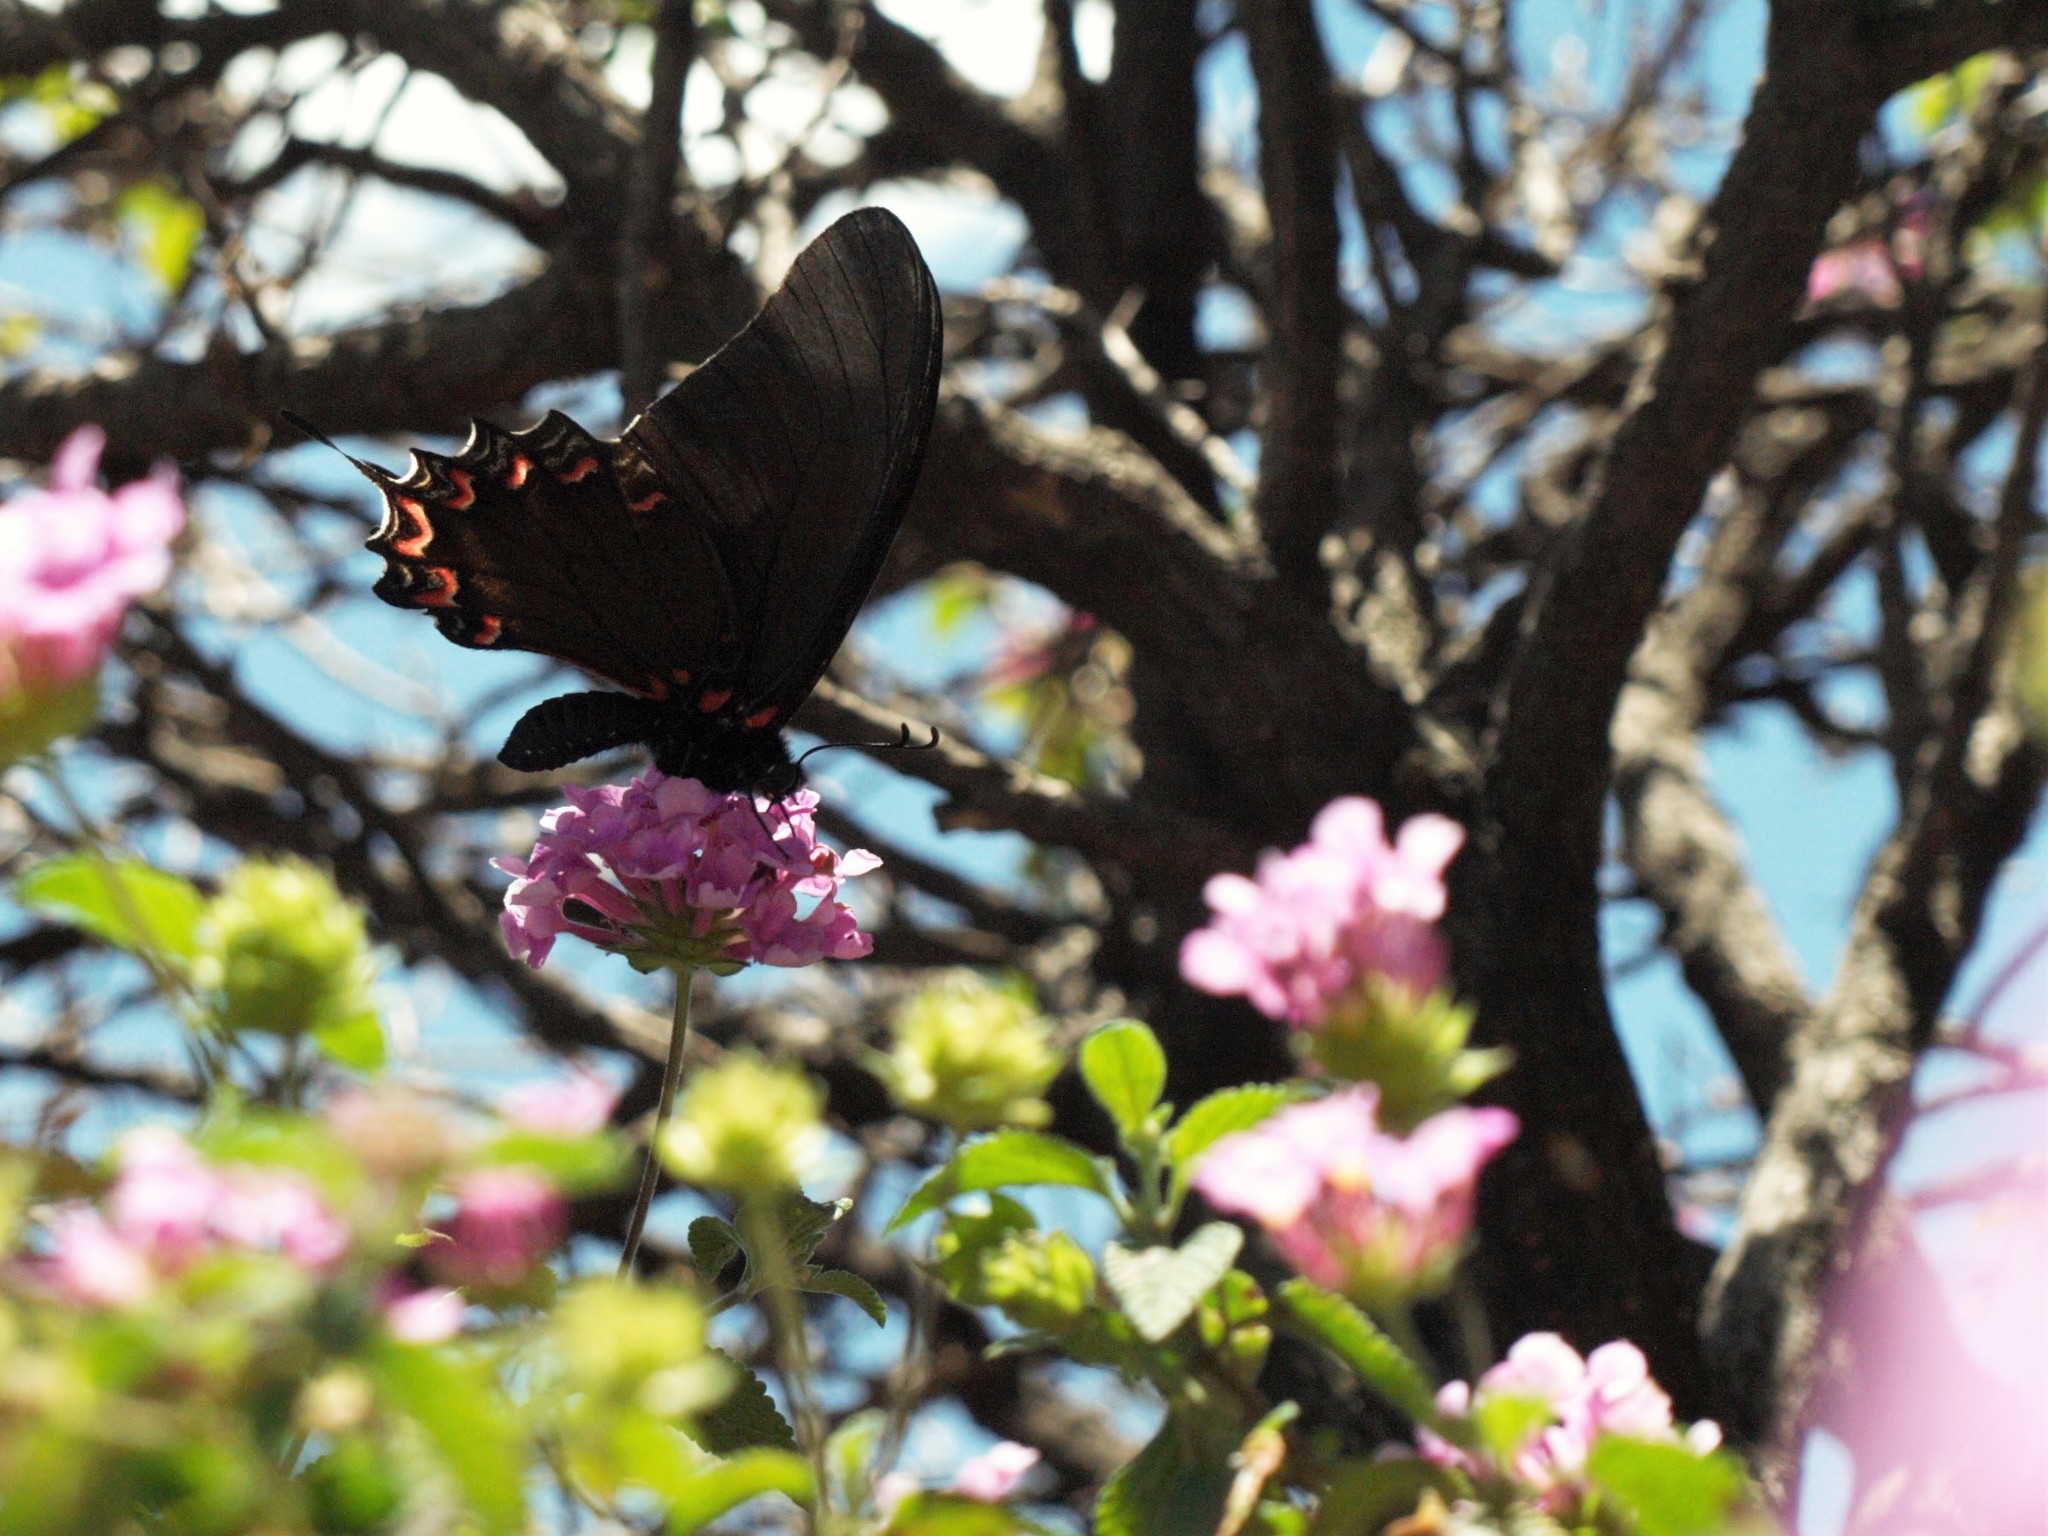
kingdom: Animalia
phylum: Arthropoda
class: Insecta
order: Lepidoptera
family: Papilionidae
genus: Mimoides
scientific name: Mimoides thymbraeus
